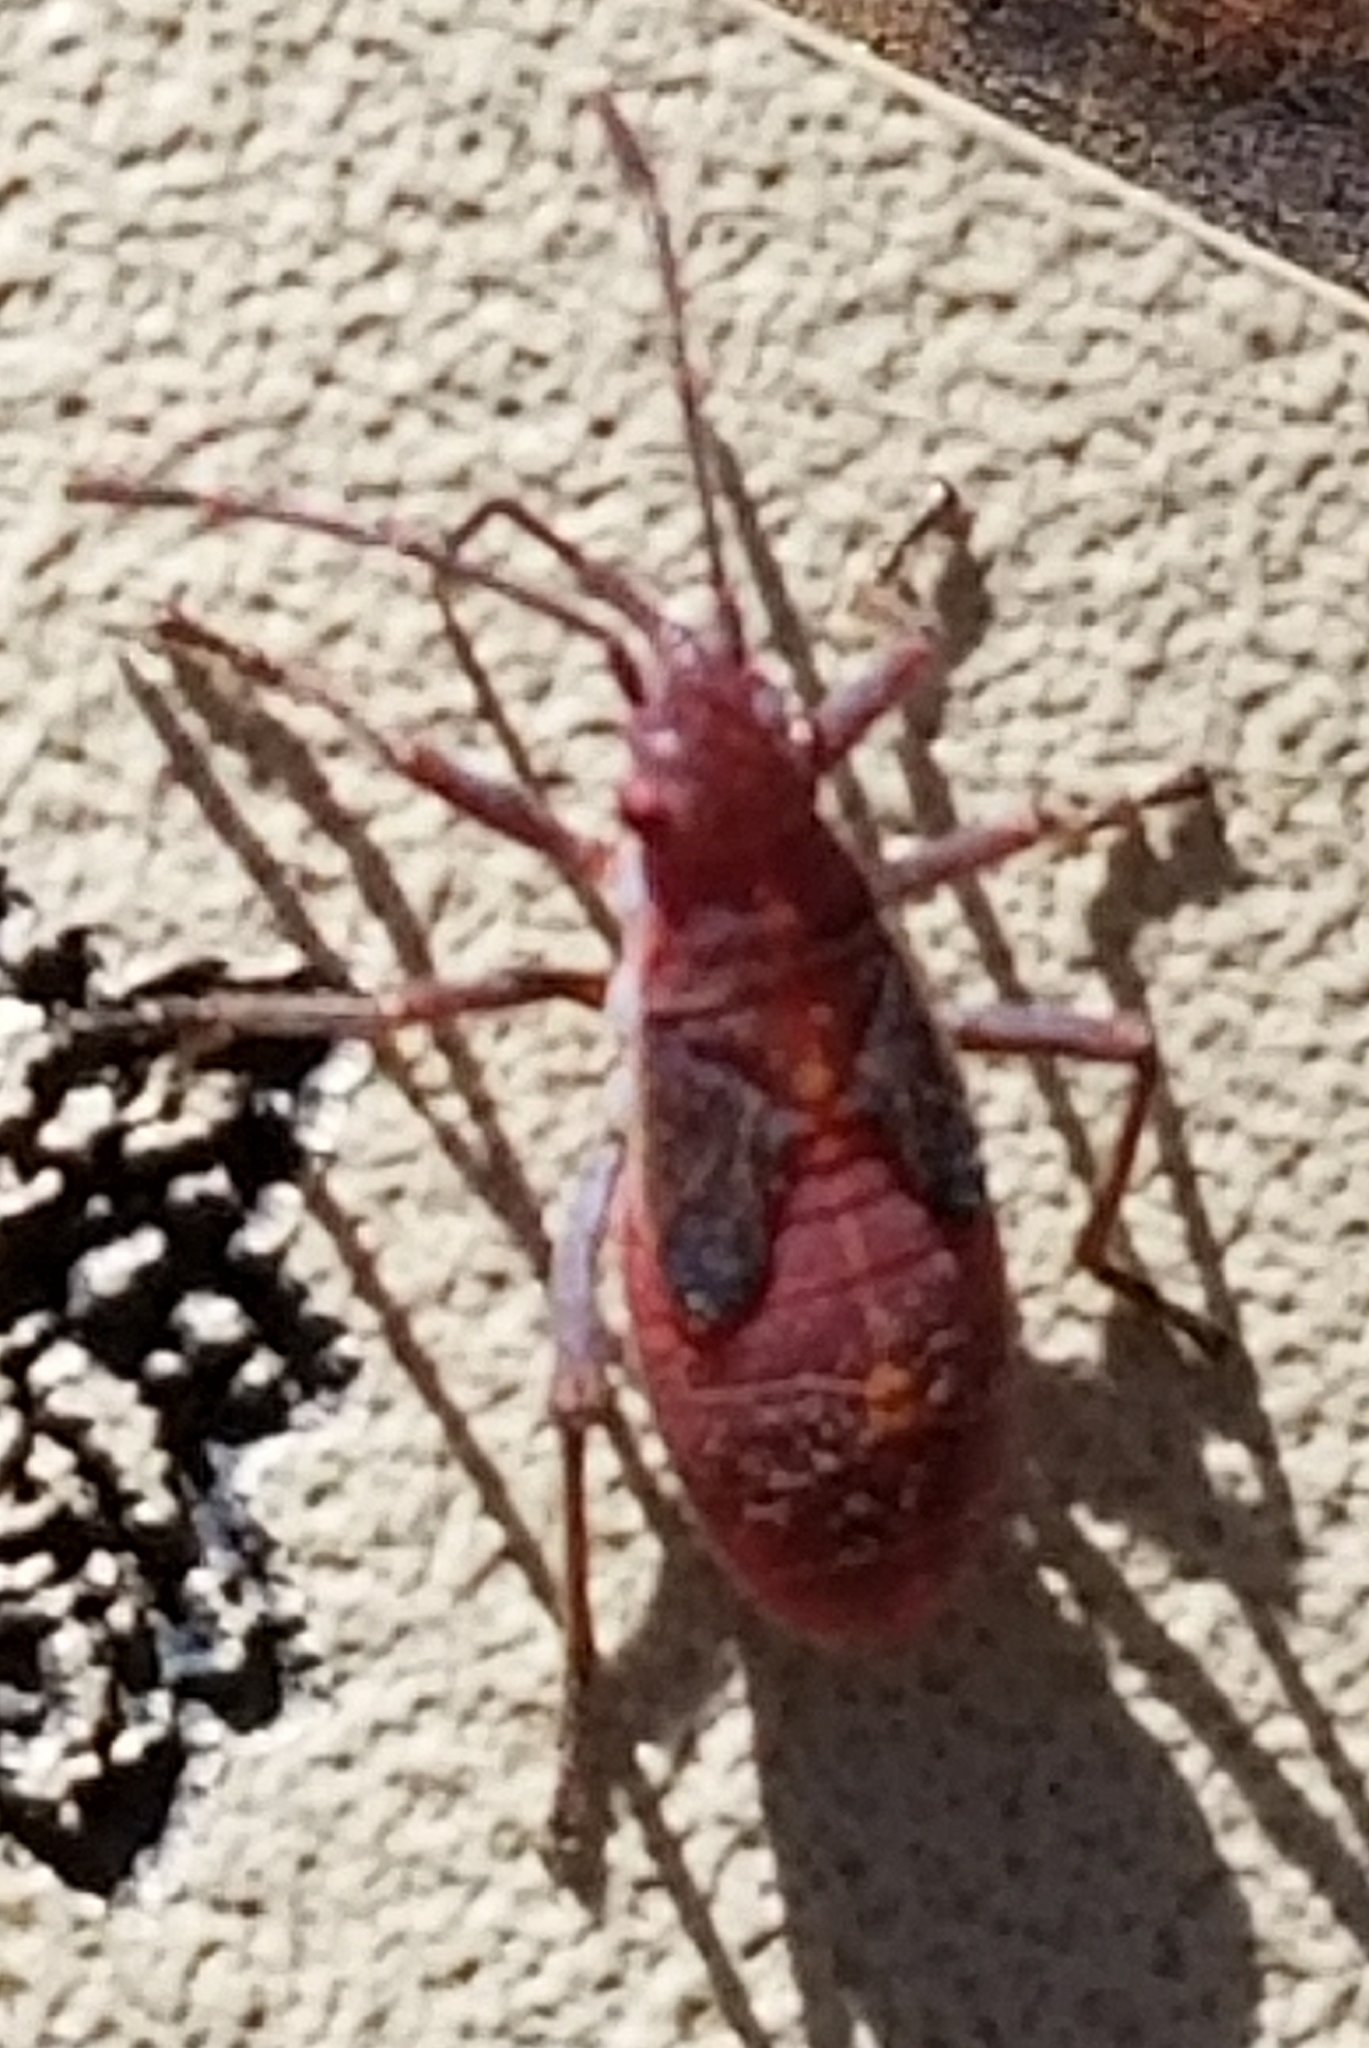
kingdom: Animalia
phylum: Arthropoda
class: Insecta
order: Hemiptera
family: Rhopalidae
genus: Boisea
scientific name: Boisea rubrolineata
